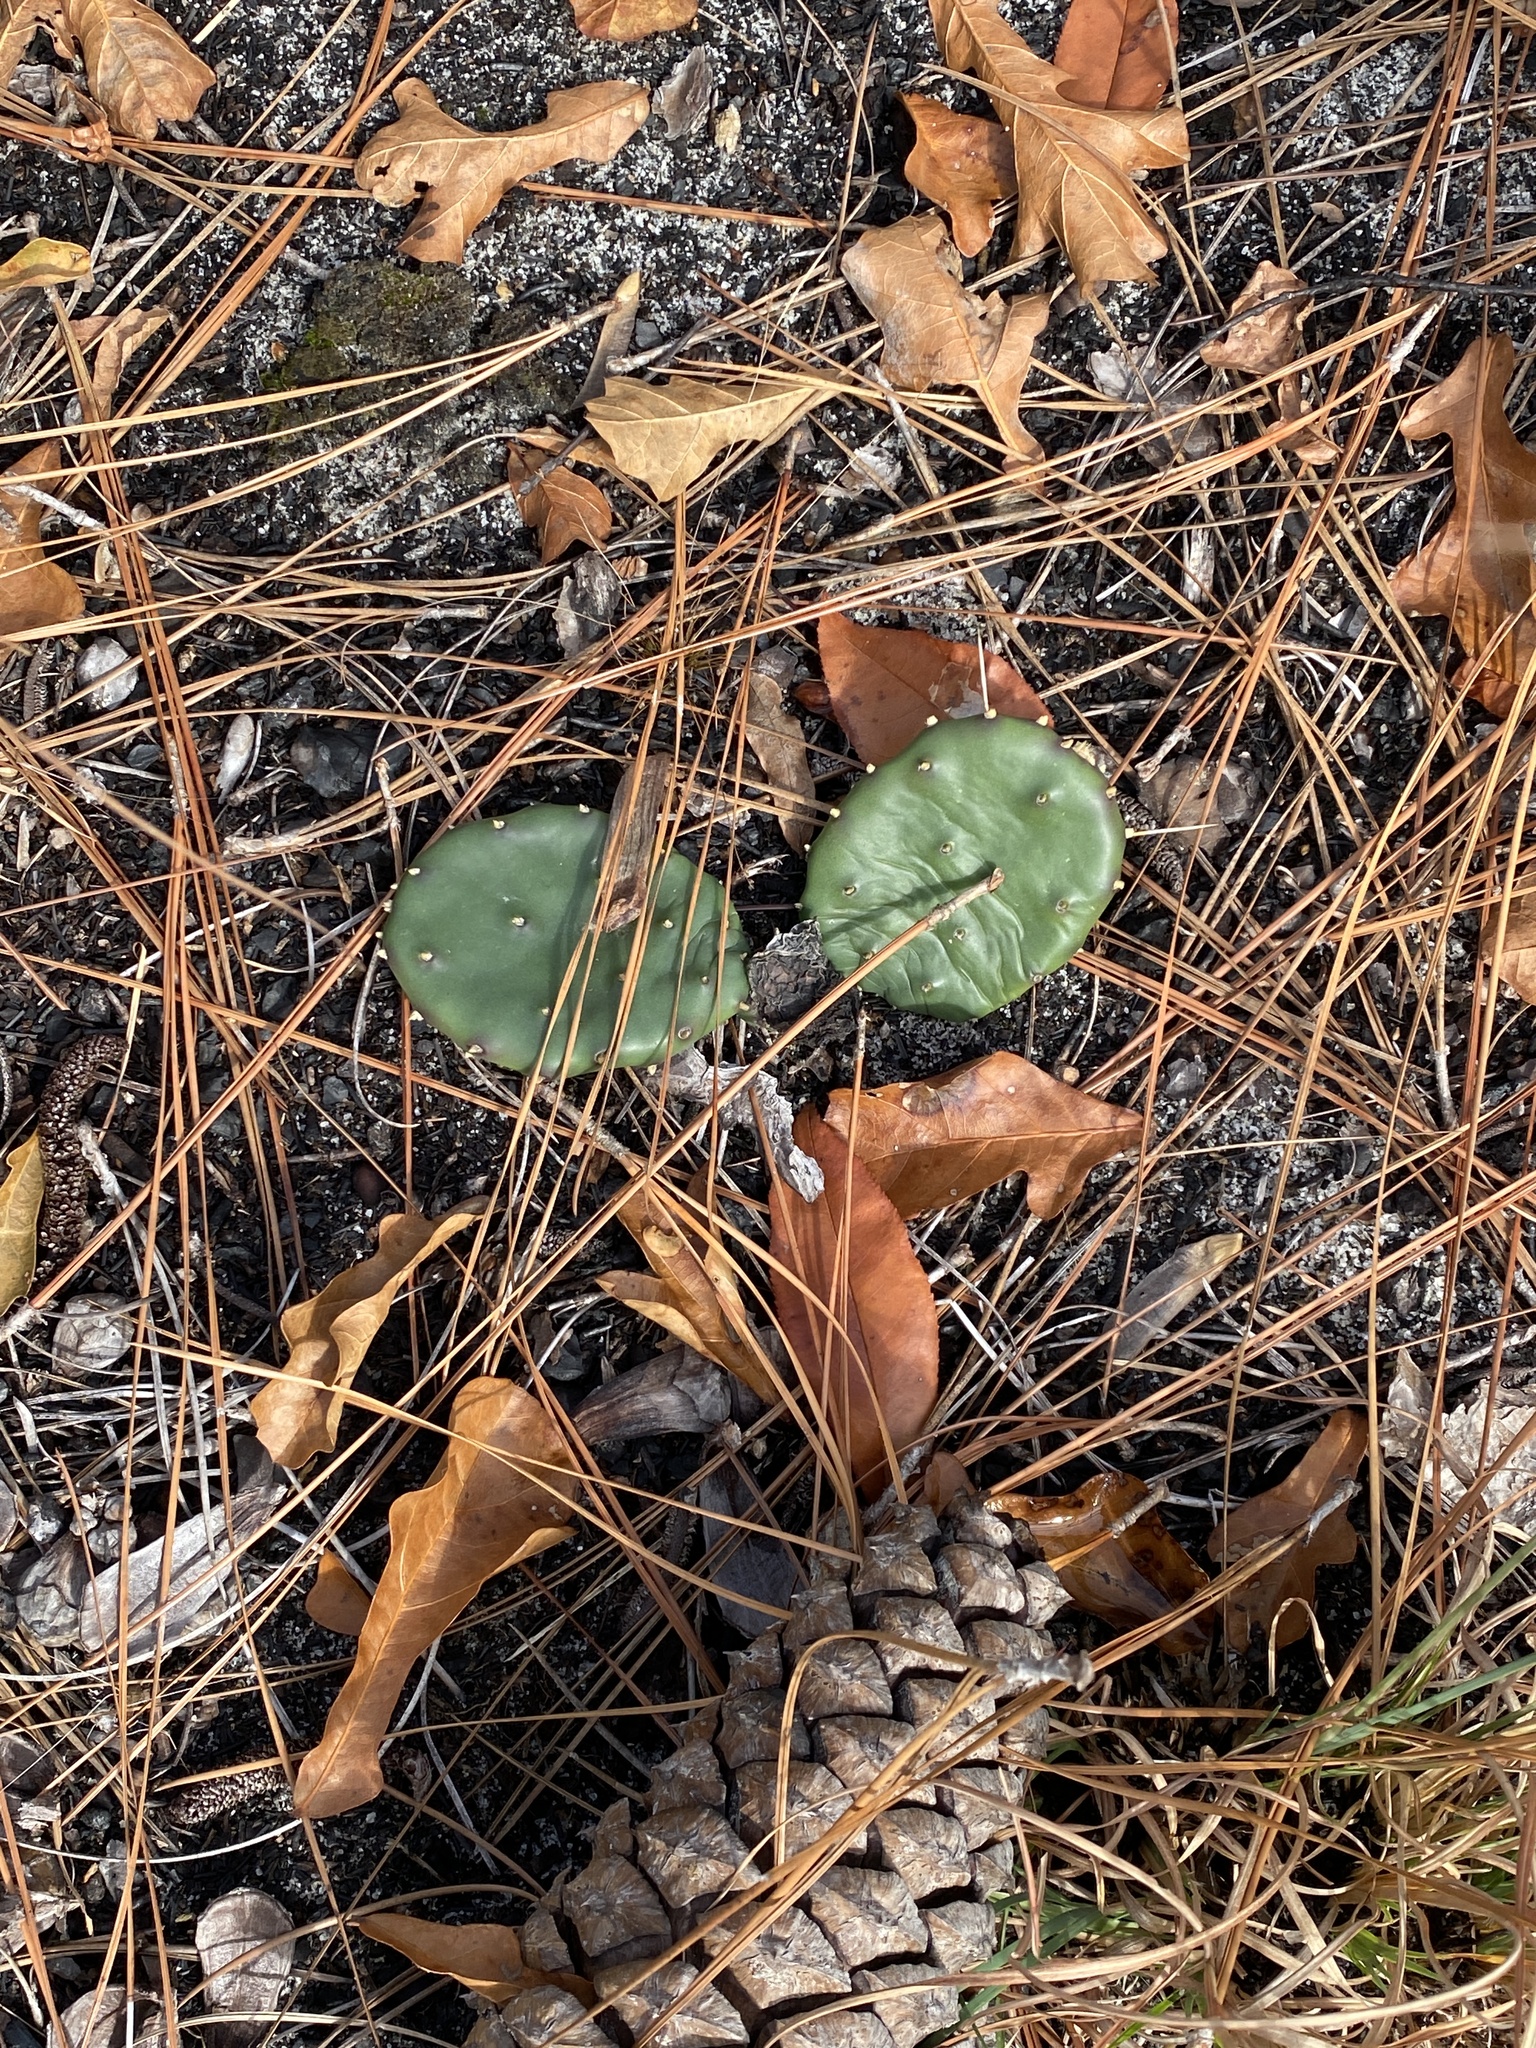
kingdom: Plantae
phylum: Tracheophyta
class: Magnoliopsida
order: Caryophyllales
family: Cactaceae
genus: Opuntia
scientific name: Opuntia mesacantha
